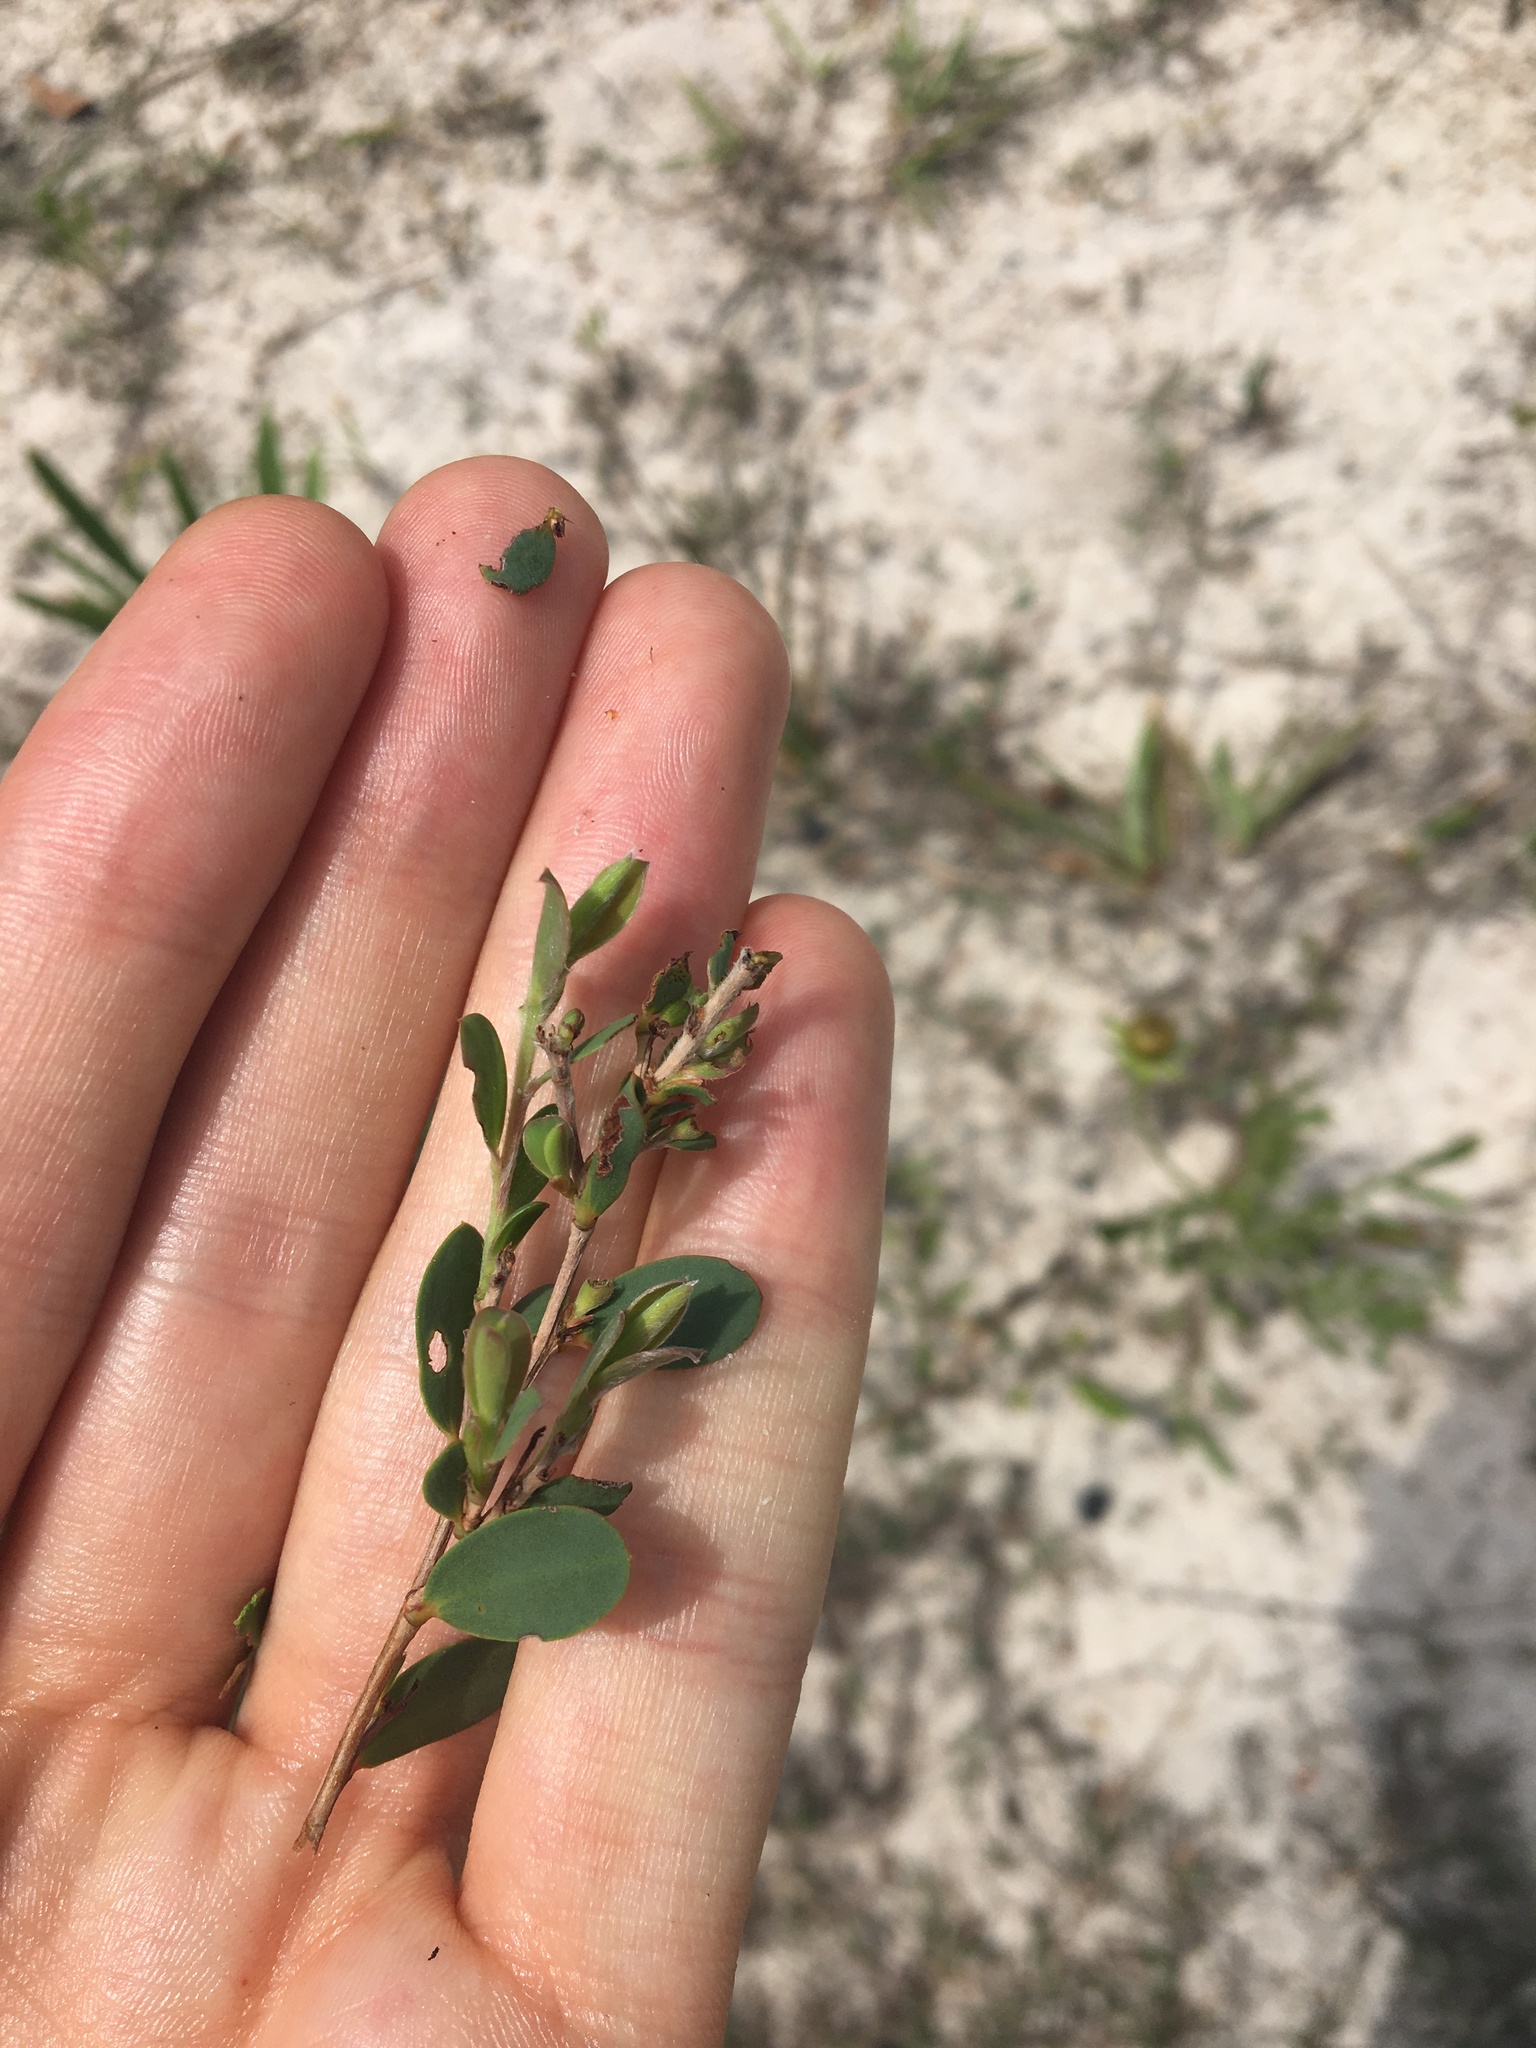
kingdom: Plantae
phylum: Tracheophyta
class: Magnoliopsida
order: Myrtales
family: Myrtaceae
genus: Leptospermum
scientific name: Leptospermum laevigatum
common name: Australian teatree
